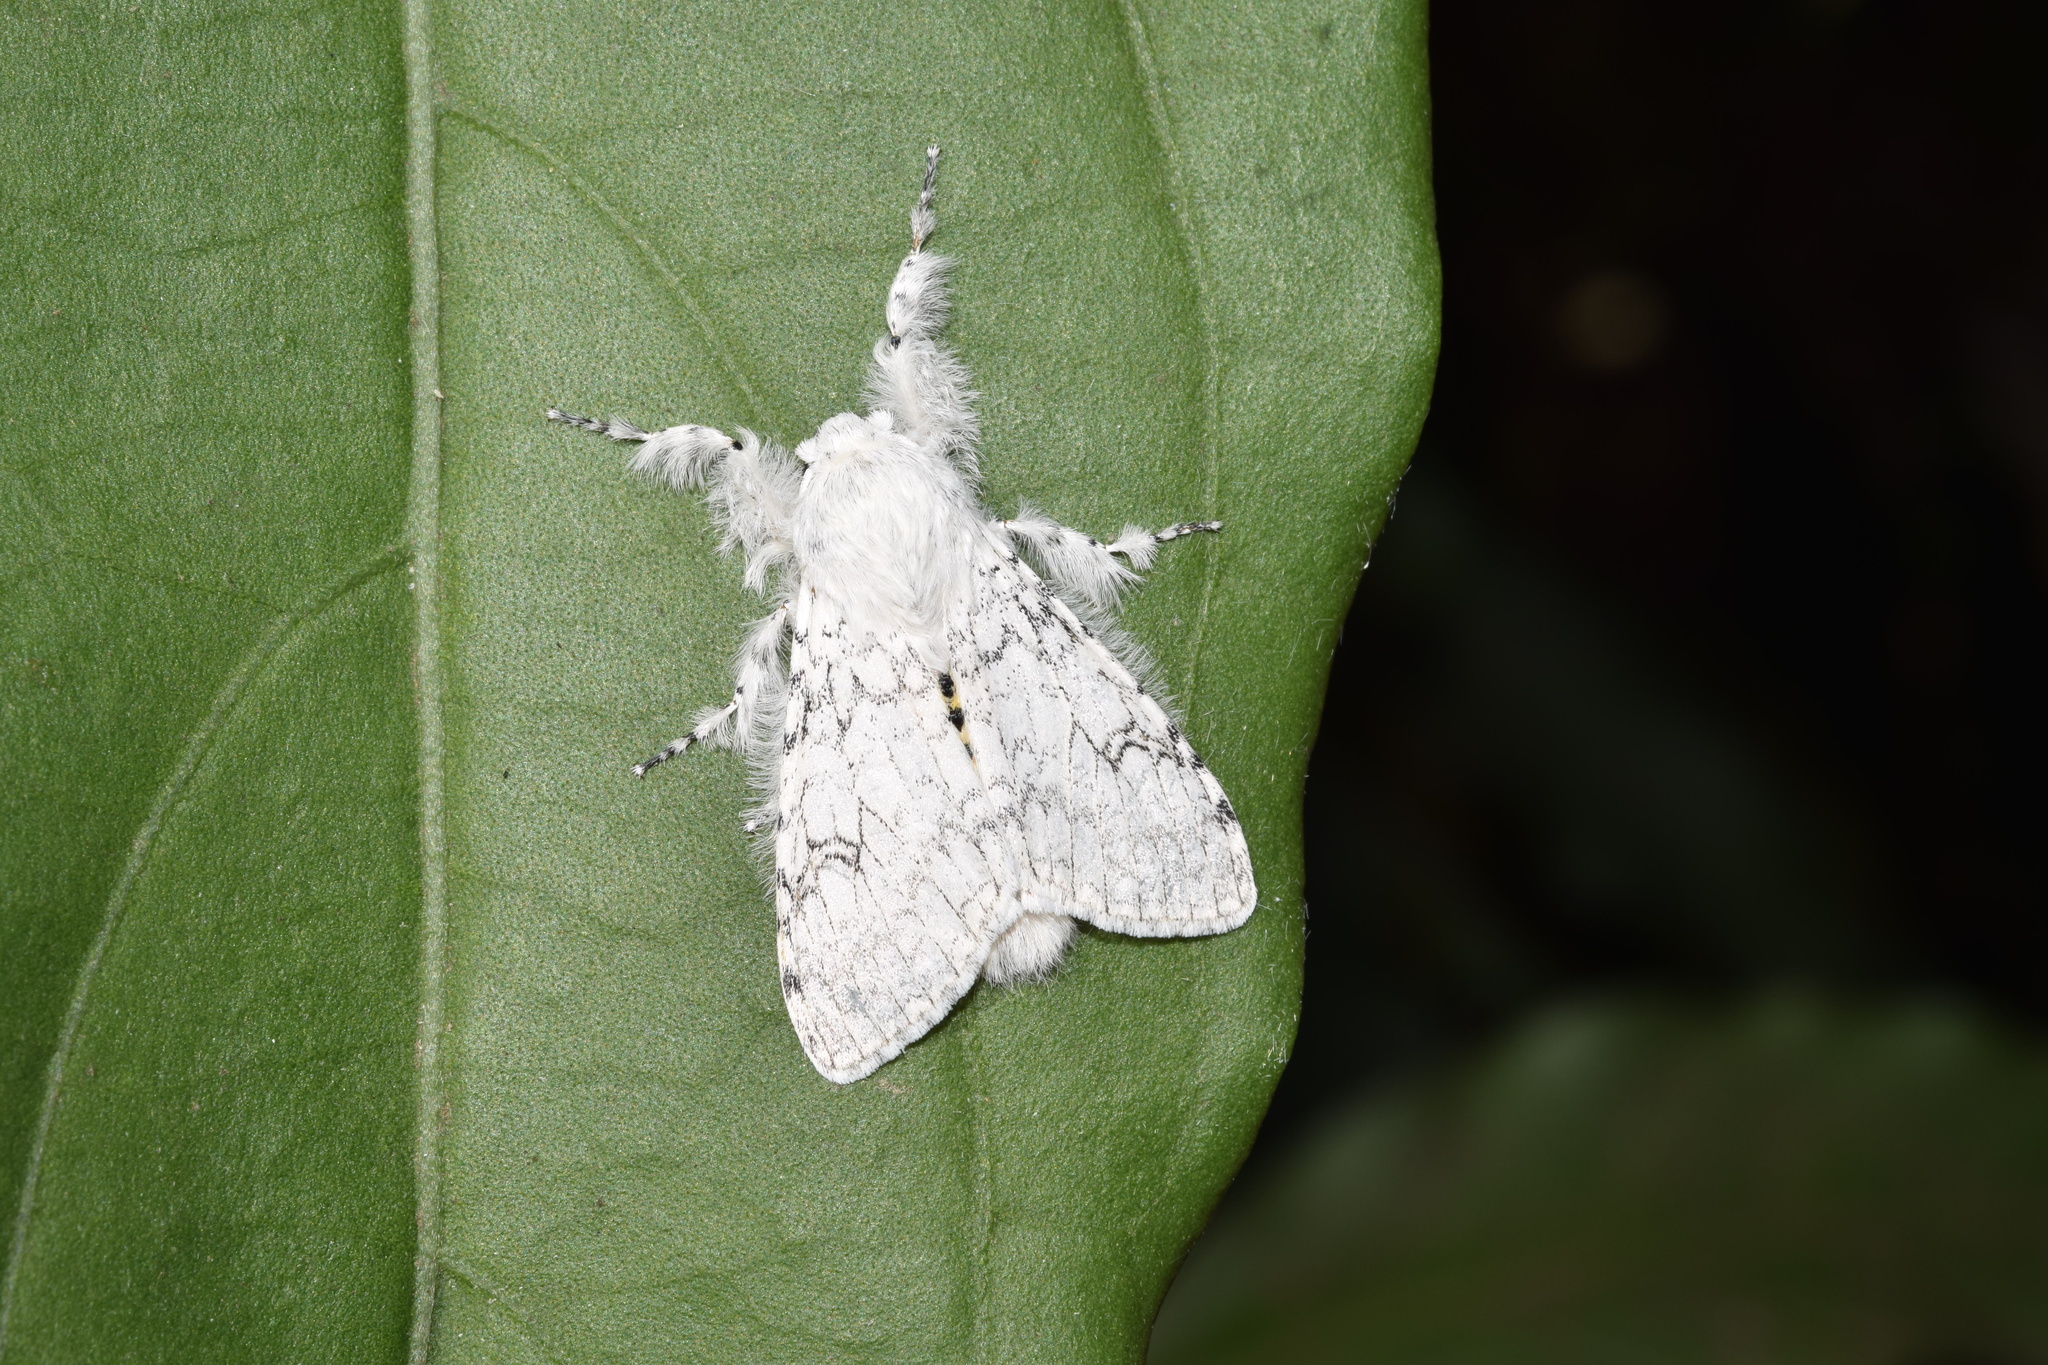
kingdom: Animalia
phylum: Arthropoda
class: Insecta
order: Lepidoptera
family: Erebidae
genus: Dasychira
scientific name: Dasychira georgiana
